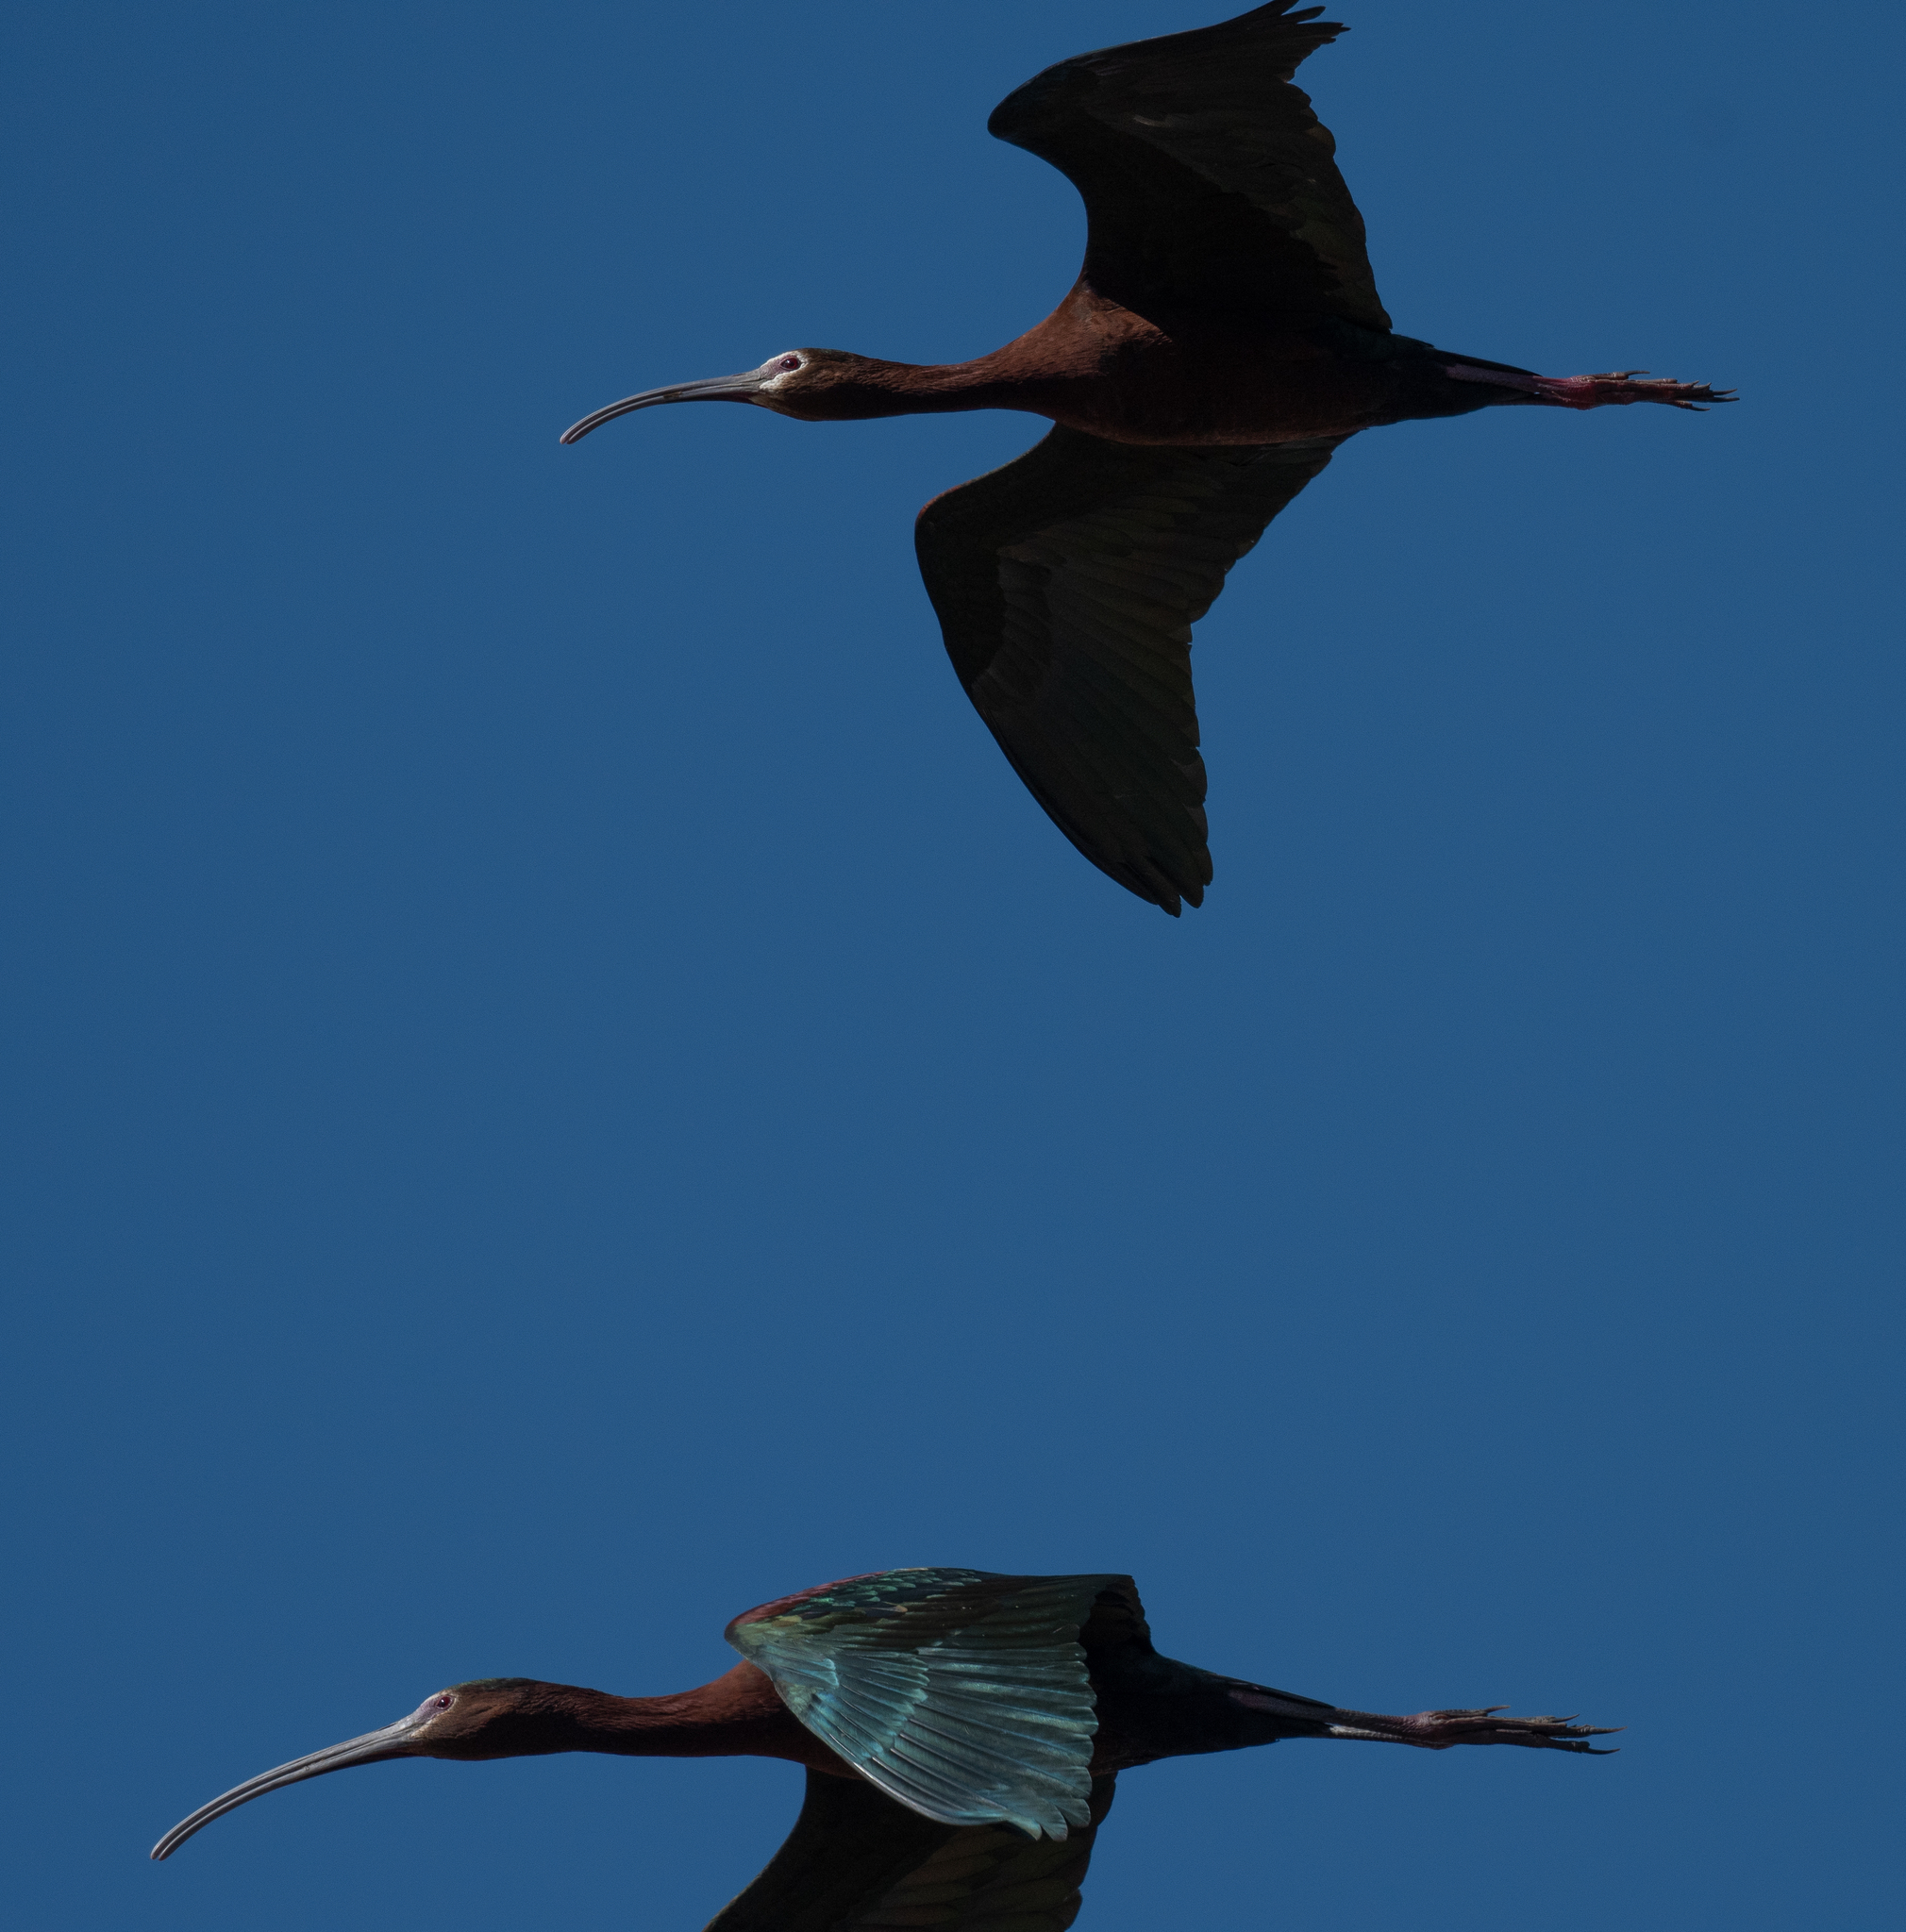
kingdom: Animalia
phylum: Chordata
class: Aves
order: Pelecaniformes
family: Threskiornithidae
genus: Plegadis
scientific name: Plegadis chihi
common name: White-faced ibis
